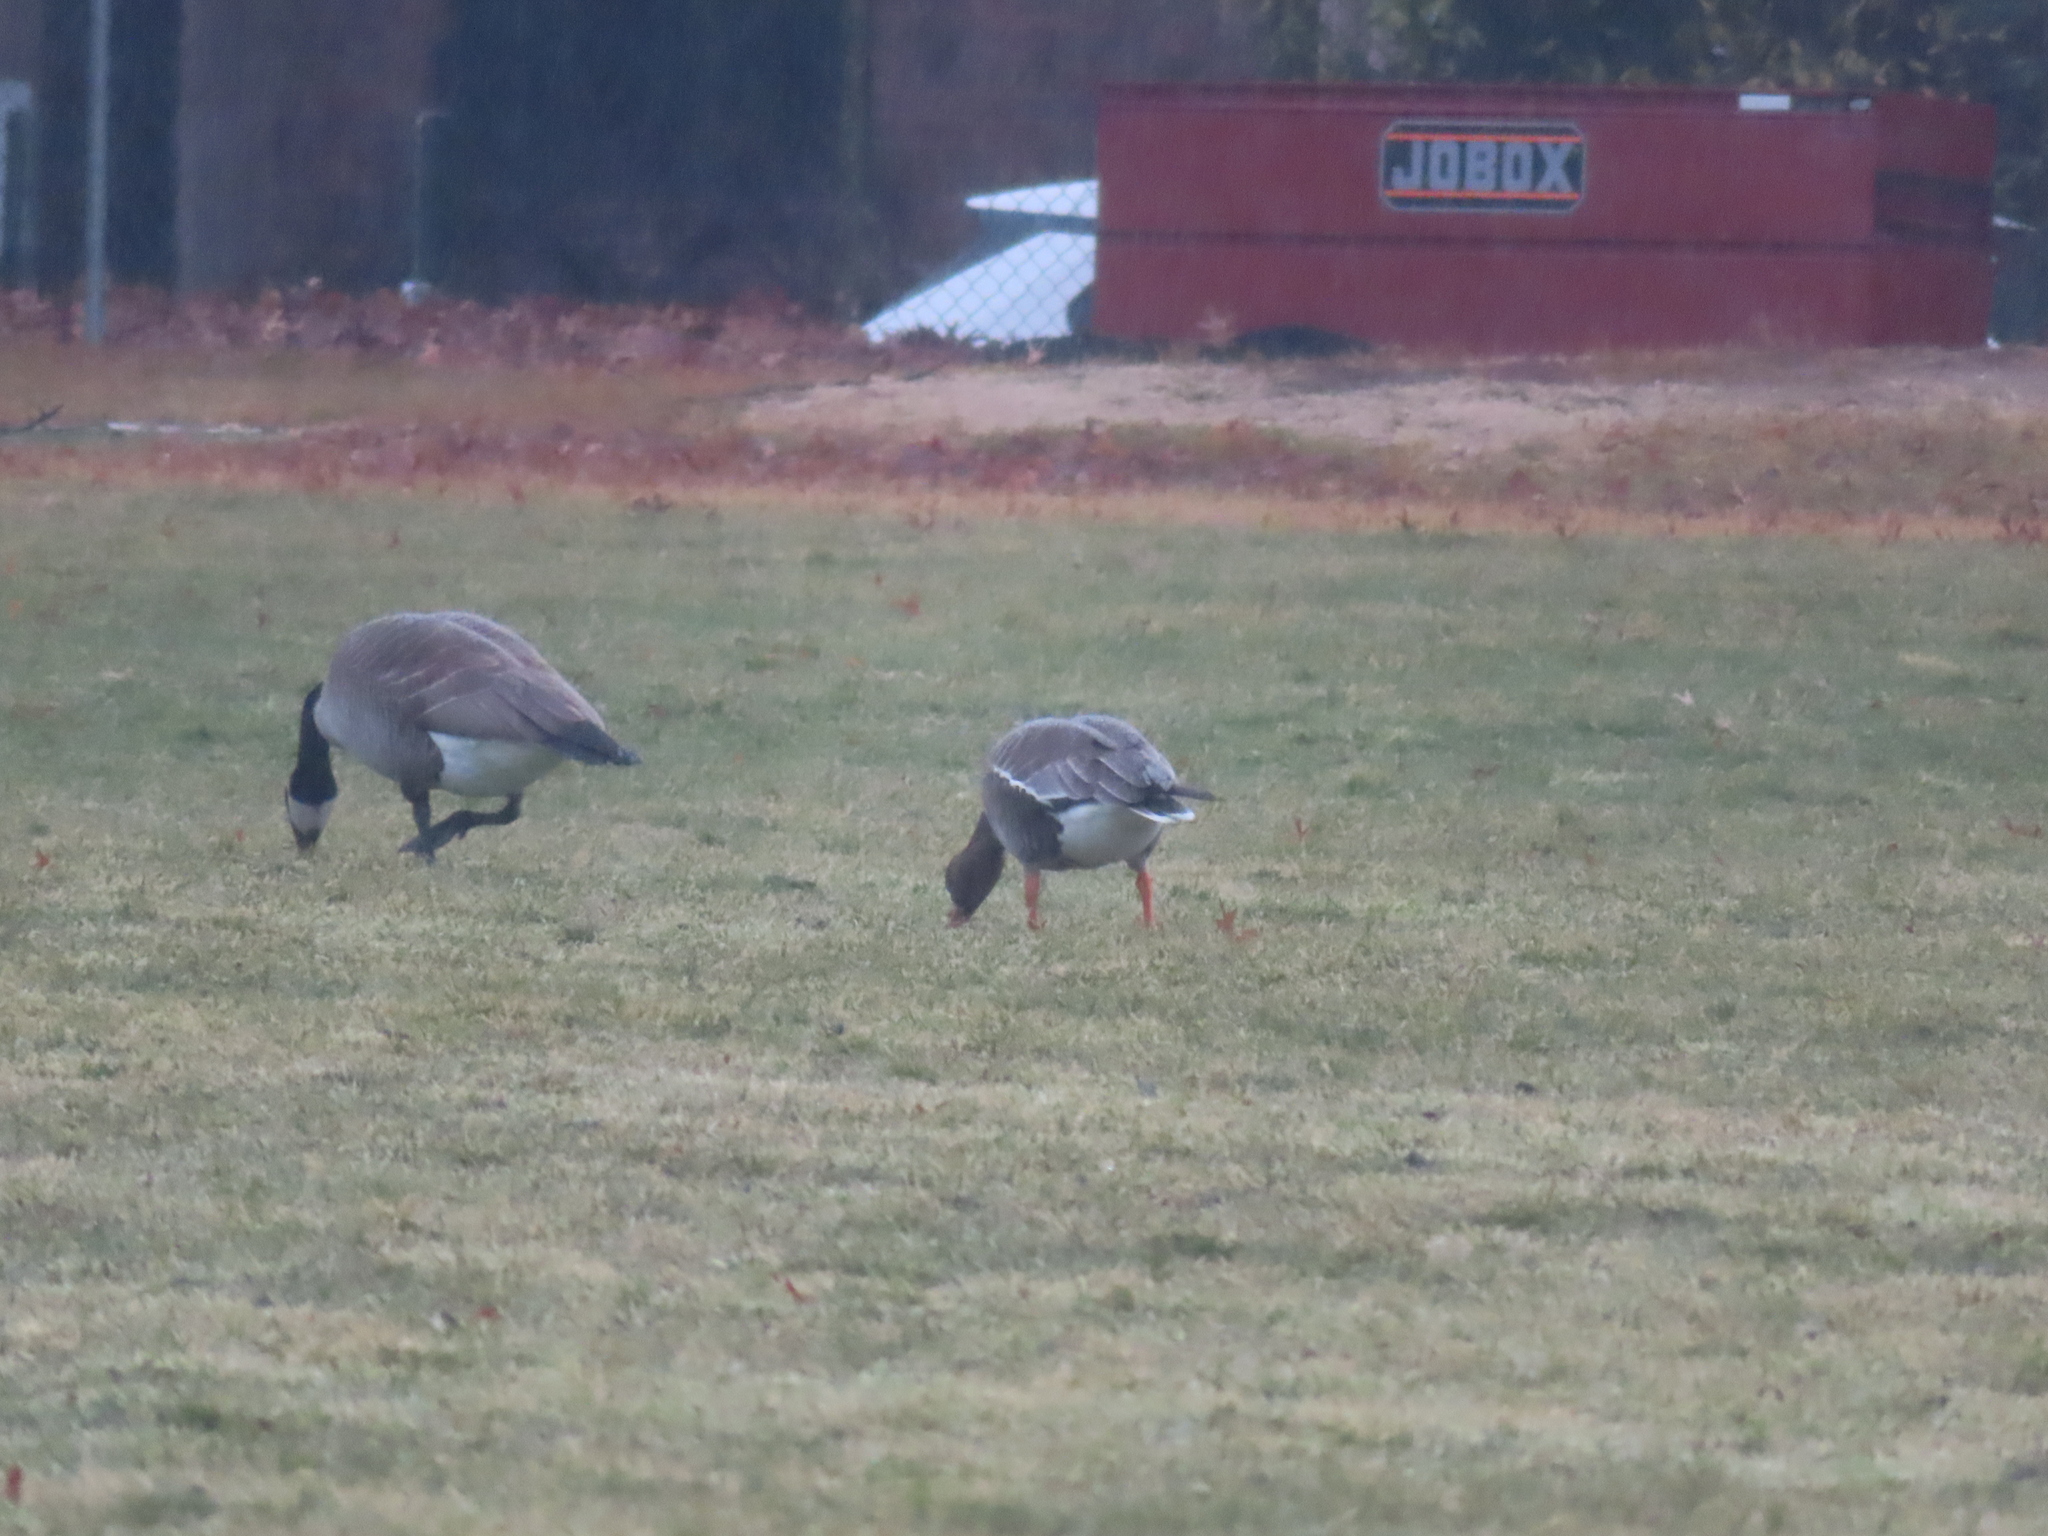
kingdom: Animalia
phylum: Chordata
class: Aves
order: Anseriformes
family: Anatidae
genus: Anser
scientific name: Anser albifrons
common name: Greater white-fronted goose
